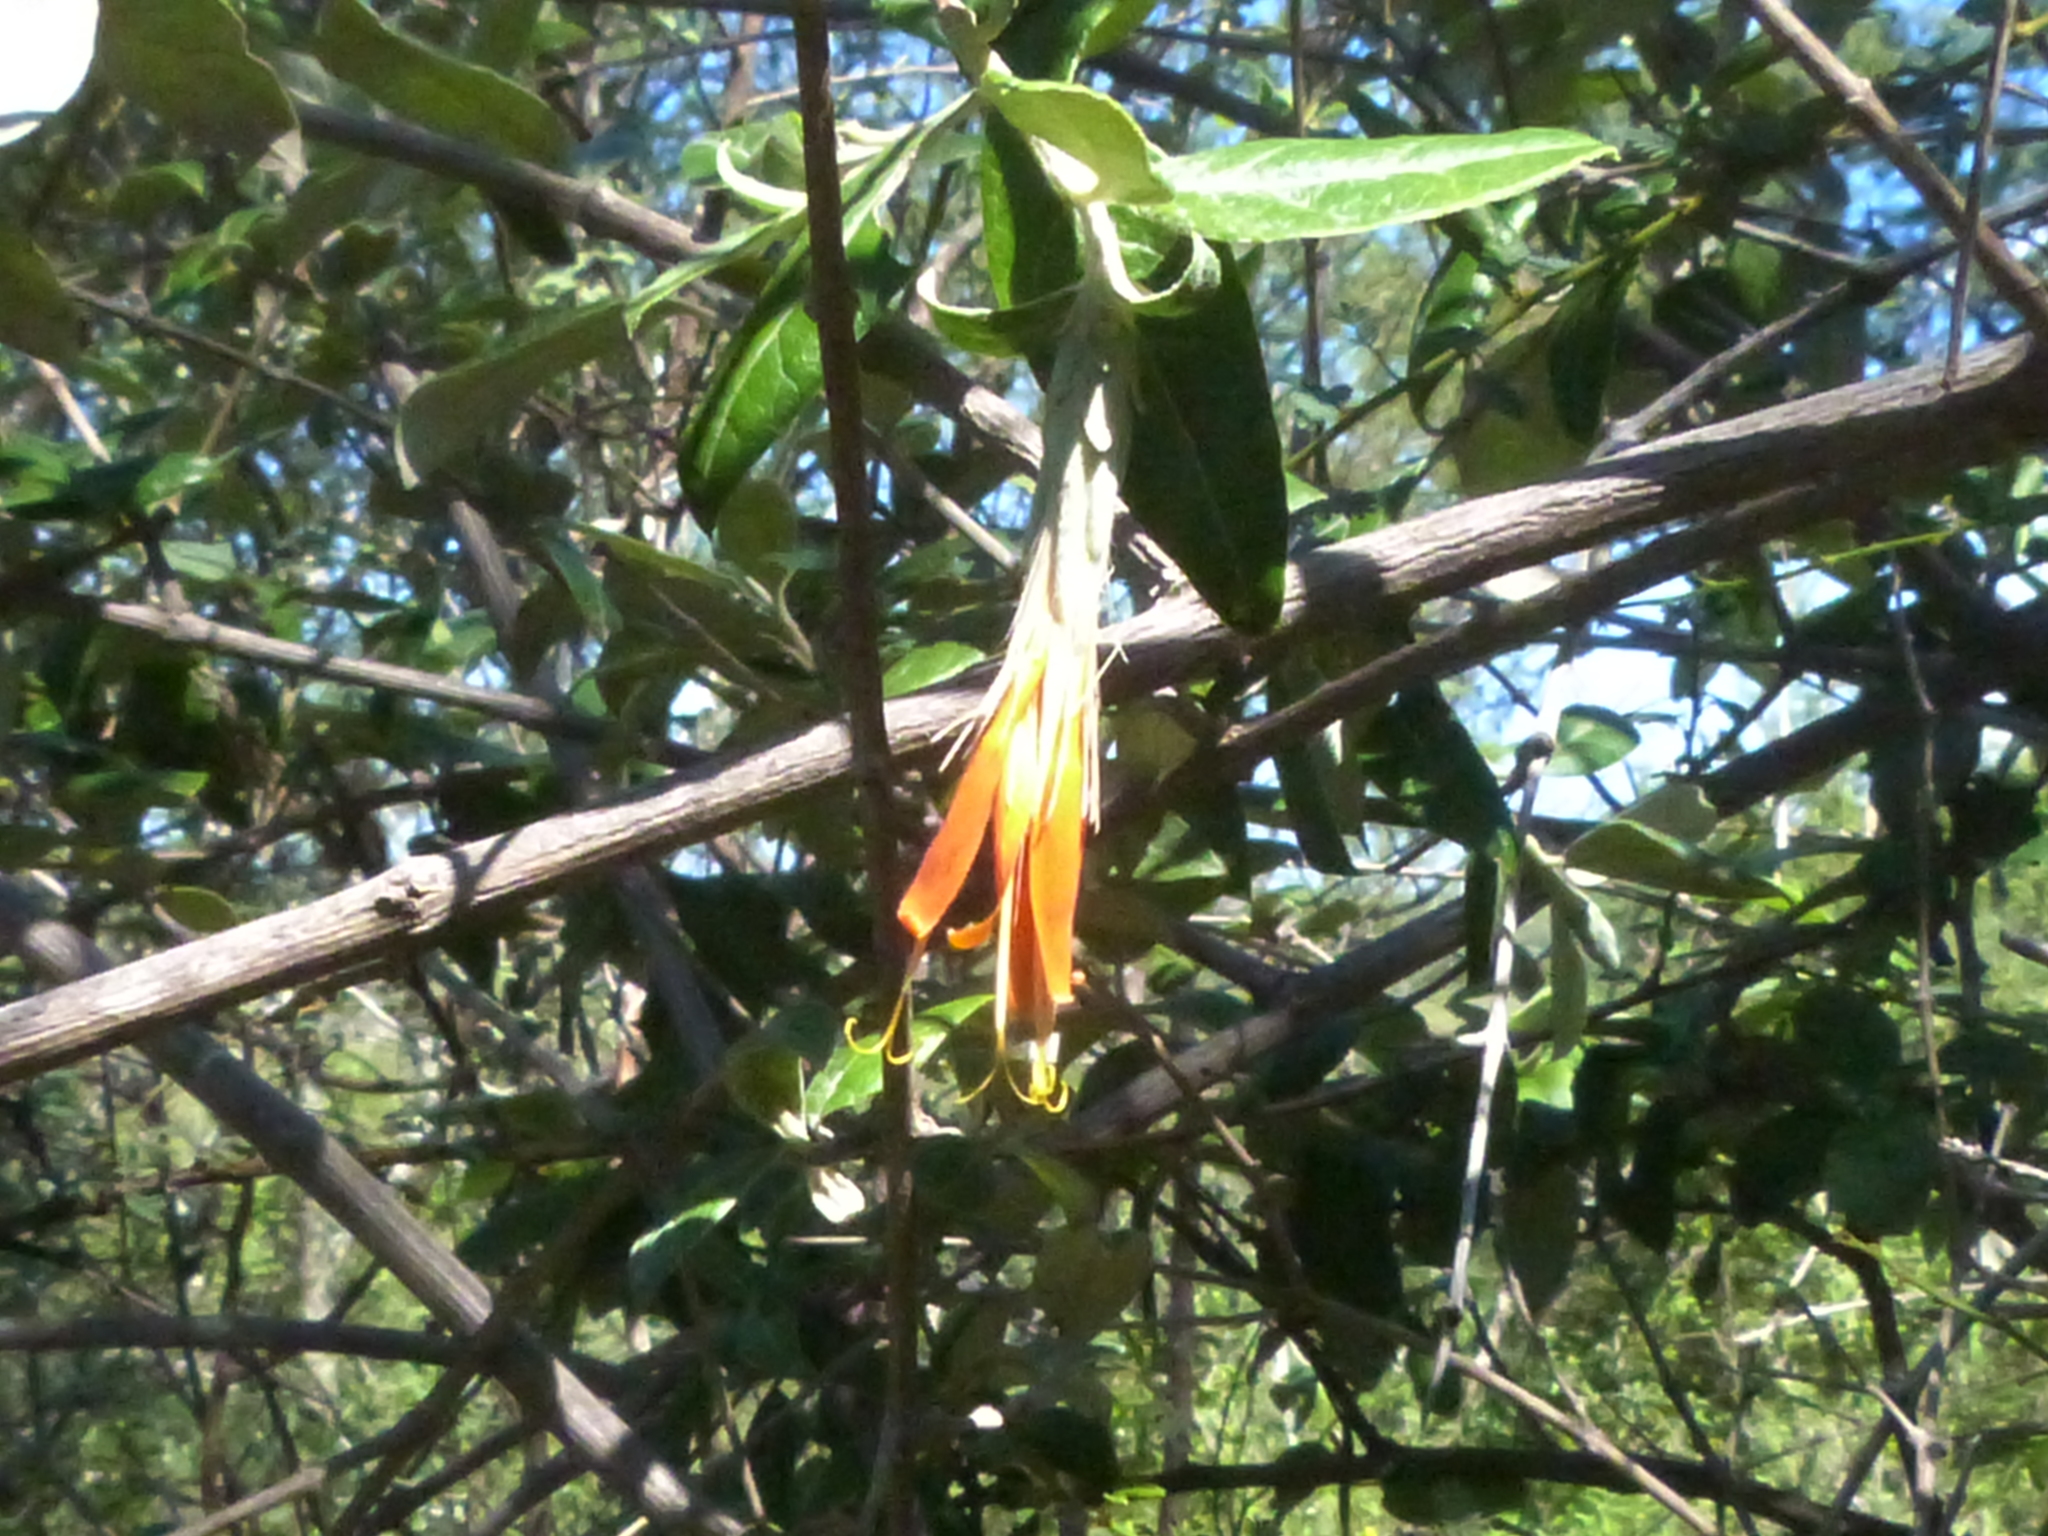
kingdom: Plantae
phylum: Tracheophyta
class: Magnoliopsida
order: Asterales
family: Asteraceae
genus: Hyaloseris
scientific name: Hyaloseris andrade-limae
